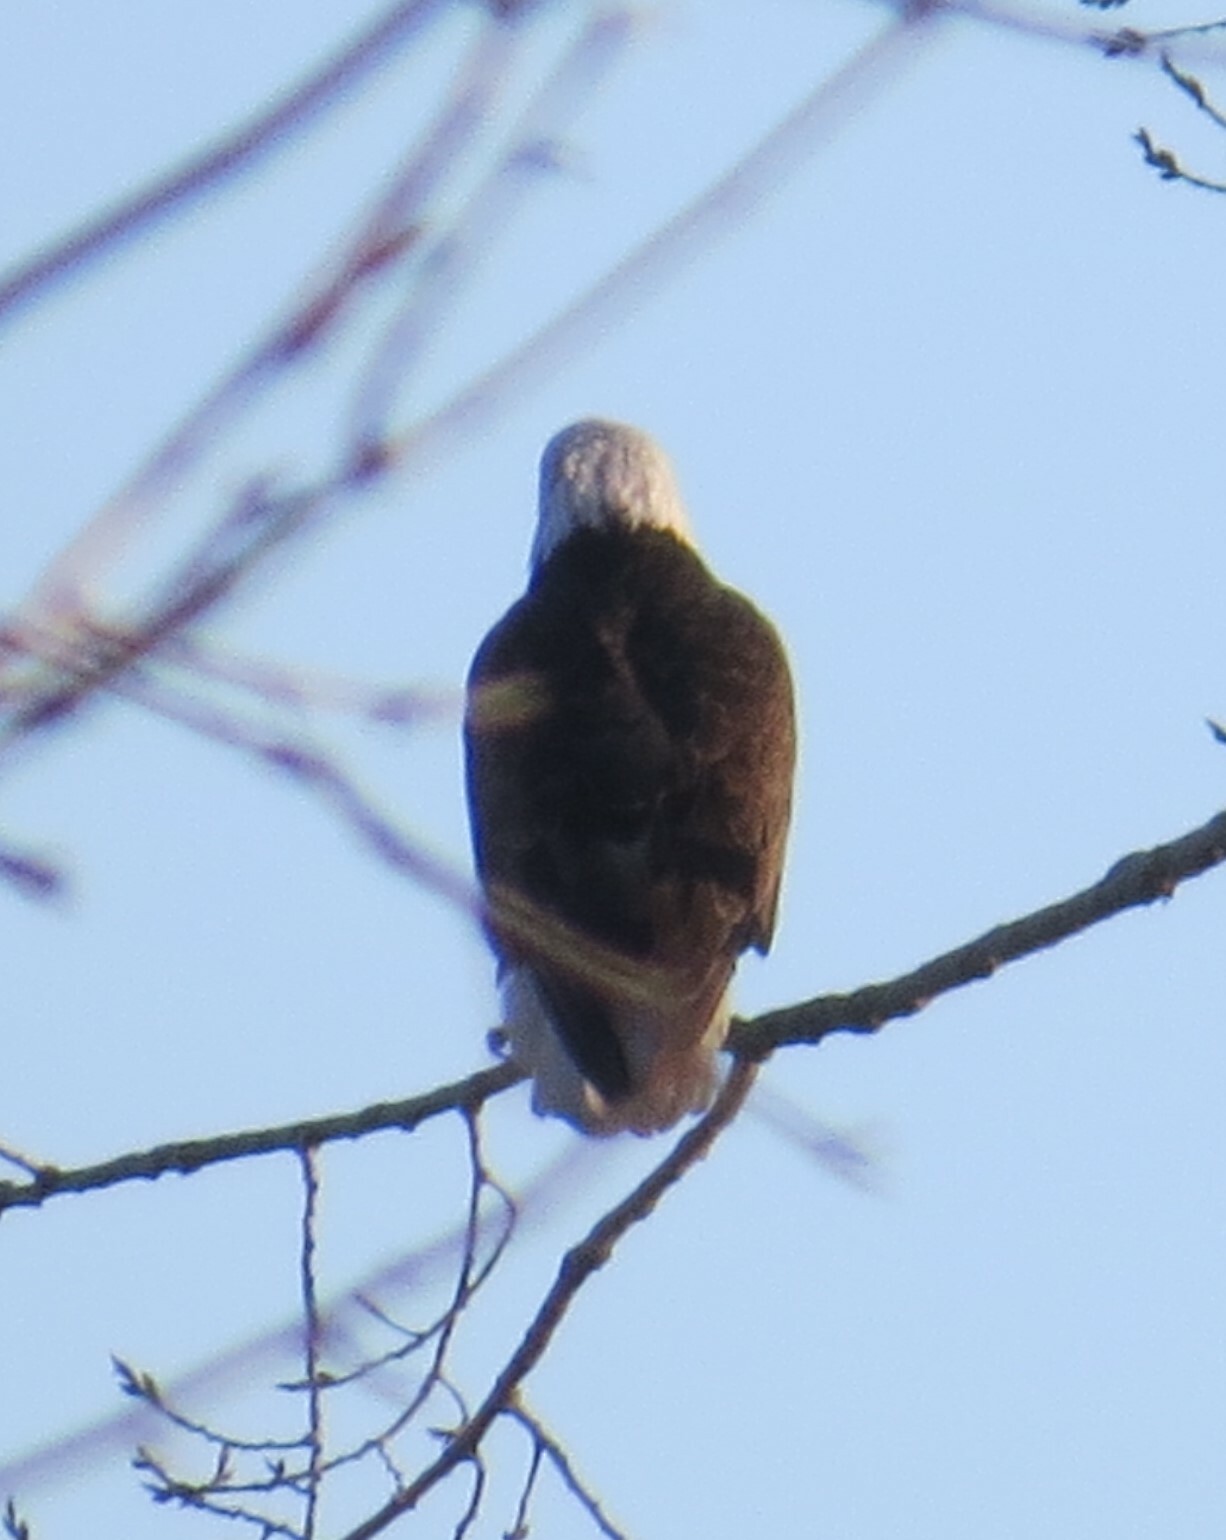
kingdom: Animalia
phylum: Chordata
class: Aves
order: Accipitriformes
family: Accipitridae
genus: Haliaeetus
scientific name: Haliaeetus leucocephalus
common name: Bald eagle
